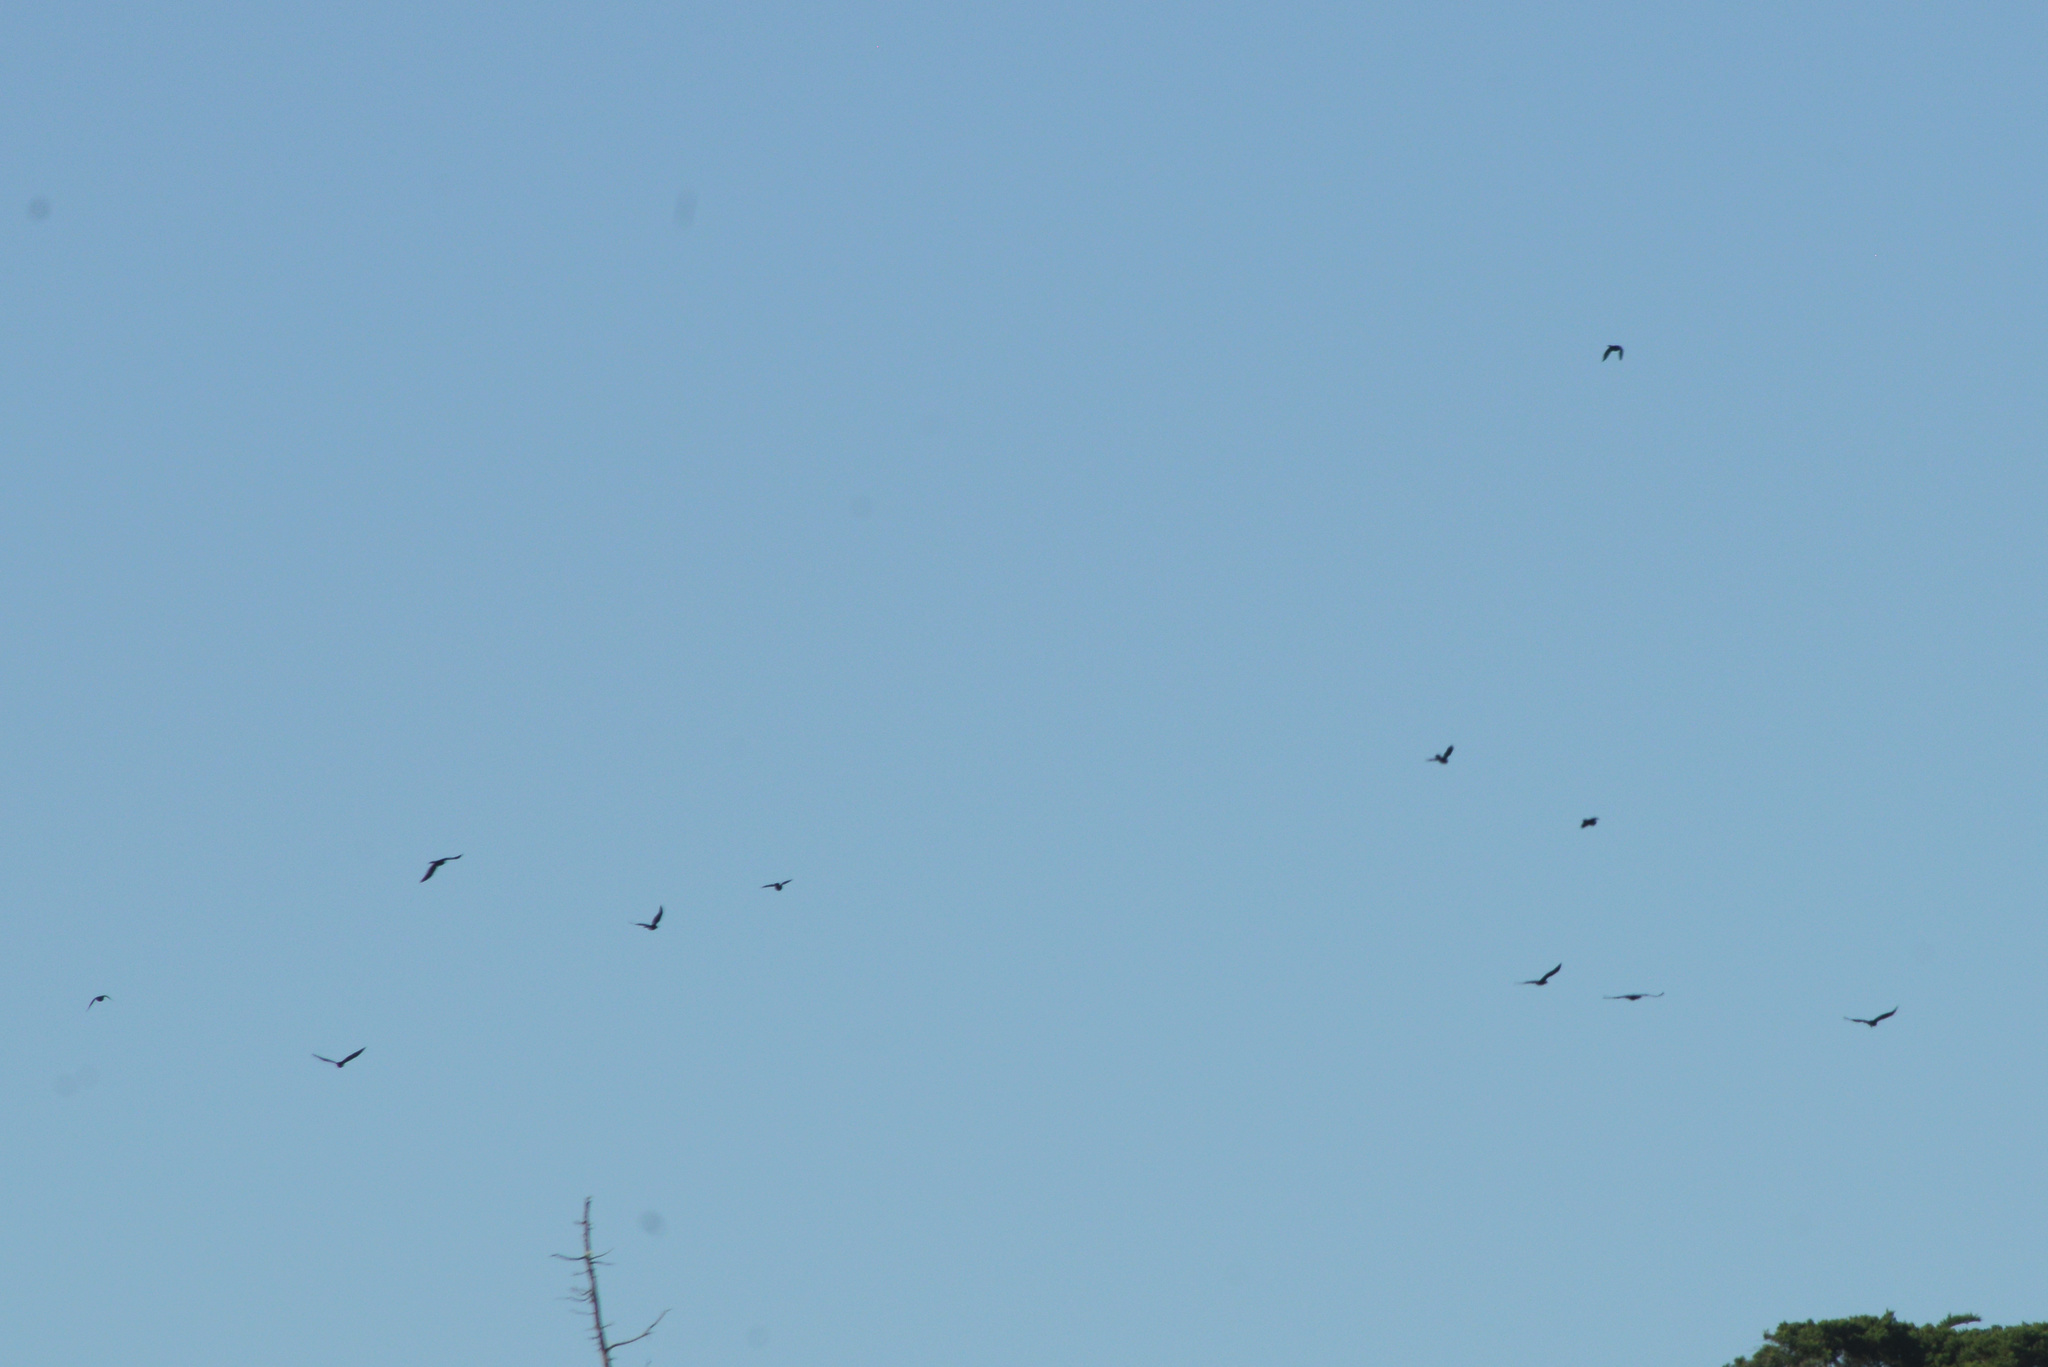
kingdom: Animalia
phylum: Chordata
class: Aves
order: Passeriformes
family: Corvidae
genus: Corvus
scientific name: Corvus brachyrhynchos
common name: American crow
